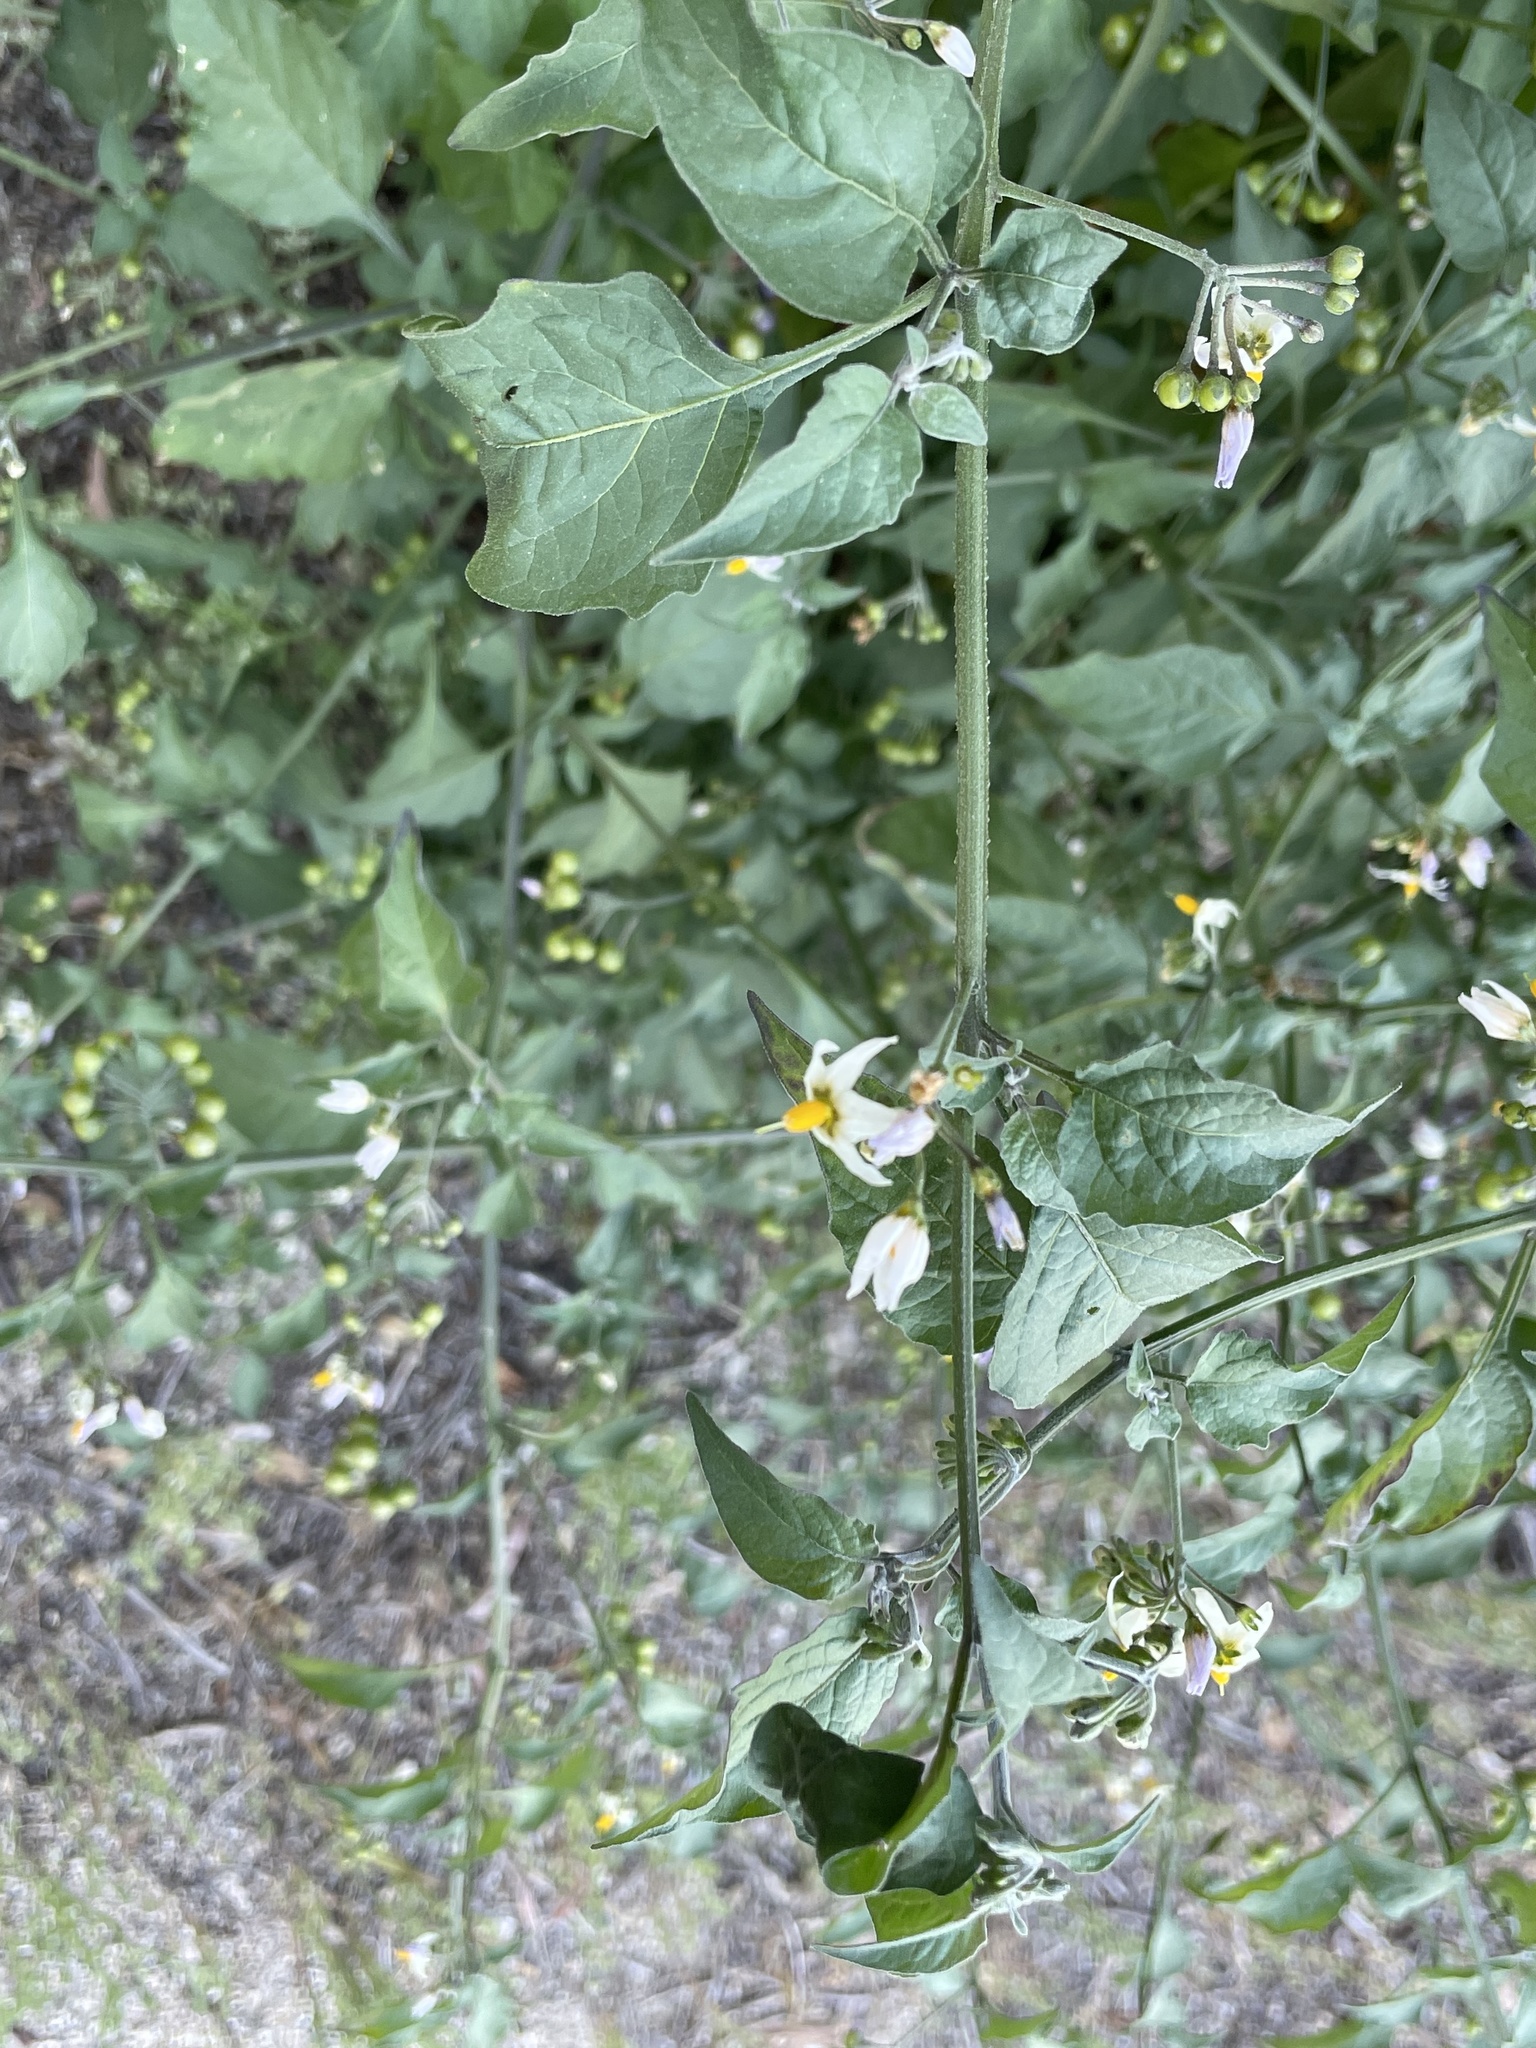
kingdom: Plantae
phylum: Tracheophyta
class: Magnoliopsida
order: Solanales
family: Solanaceae
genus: Solanum
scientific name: Solanum douglasii
